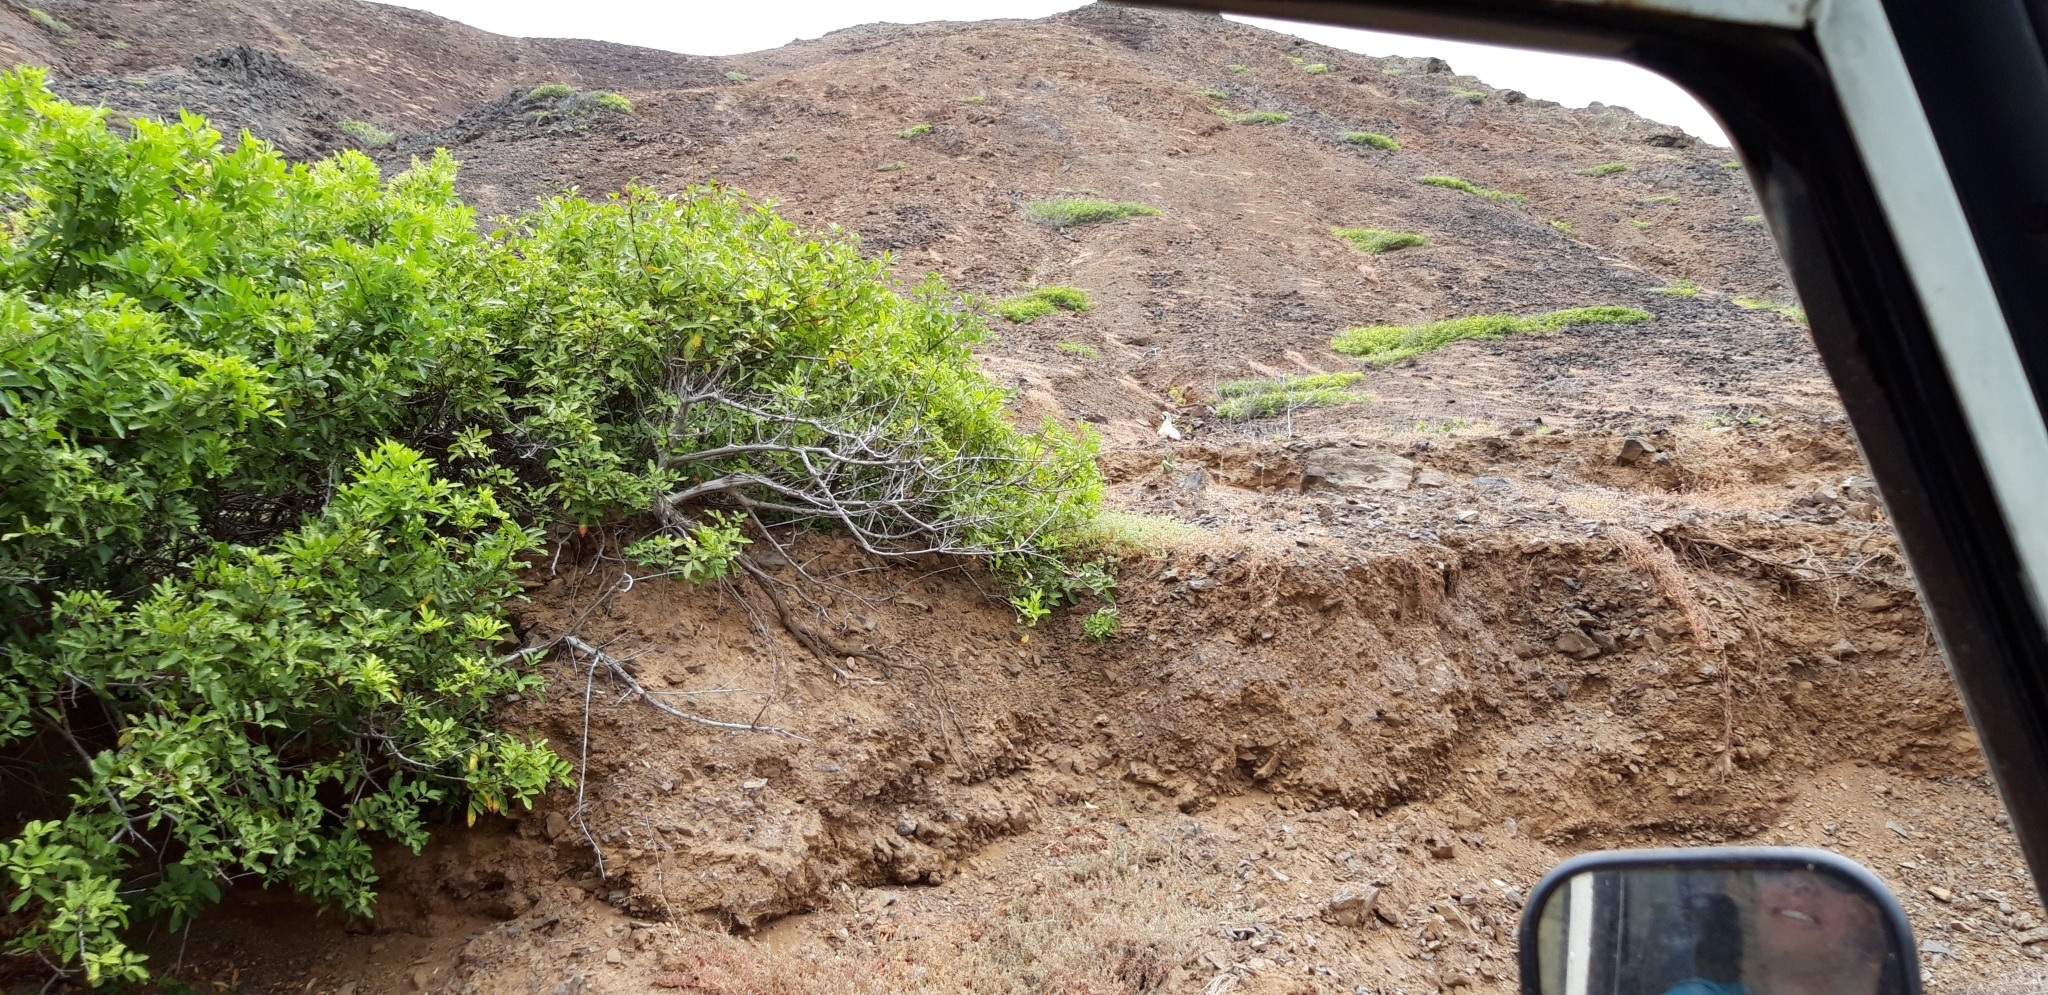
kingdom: Animalia
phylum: Chordata
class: Aves
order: Galliformes
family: Phasianidae
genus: Alectoris
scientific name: Alectoris chukar
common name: Chukar
